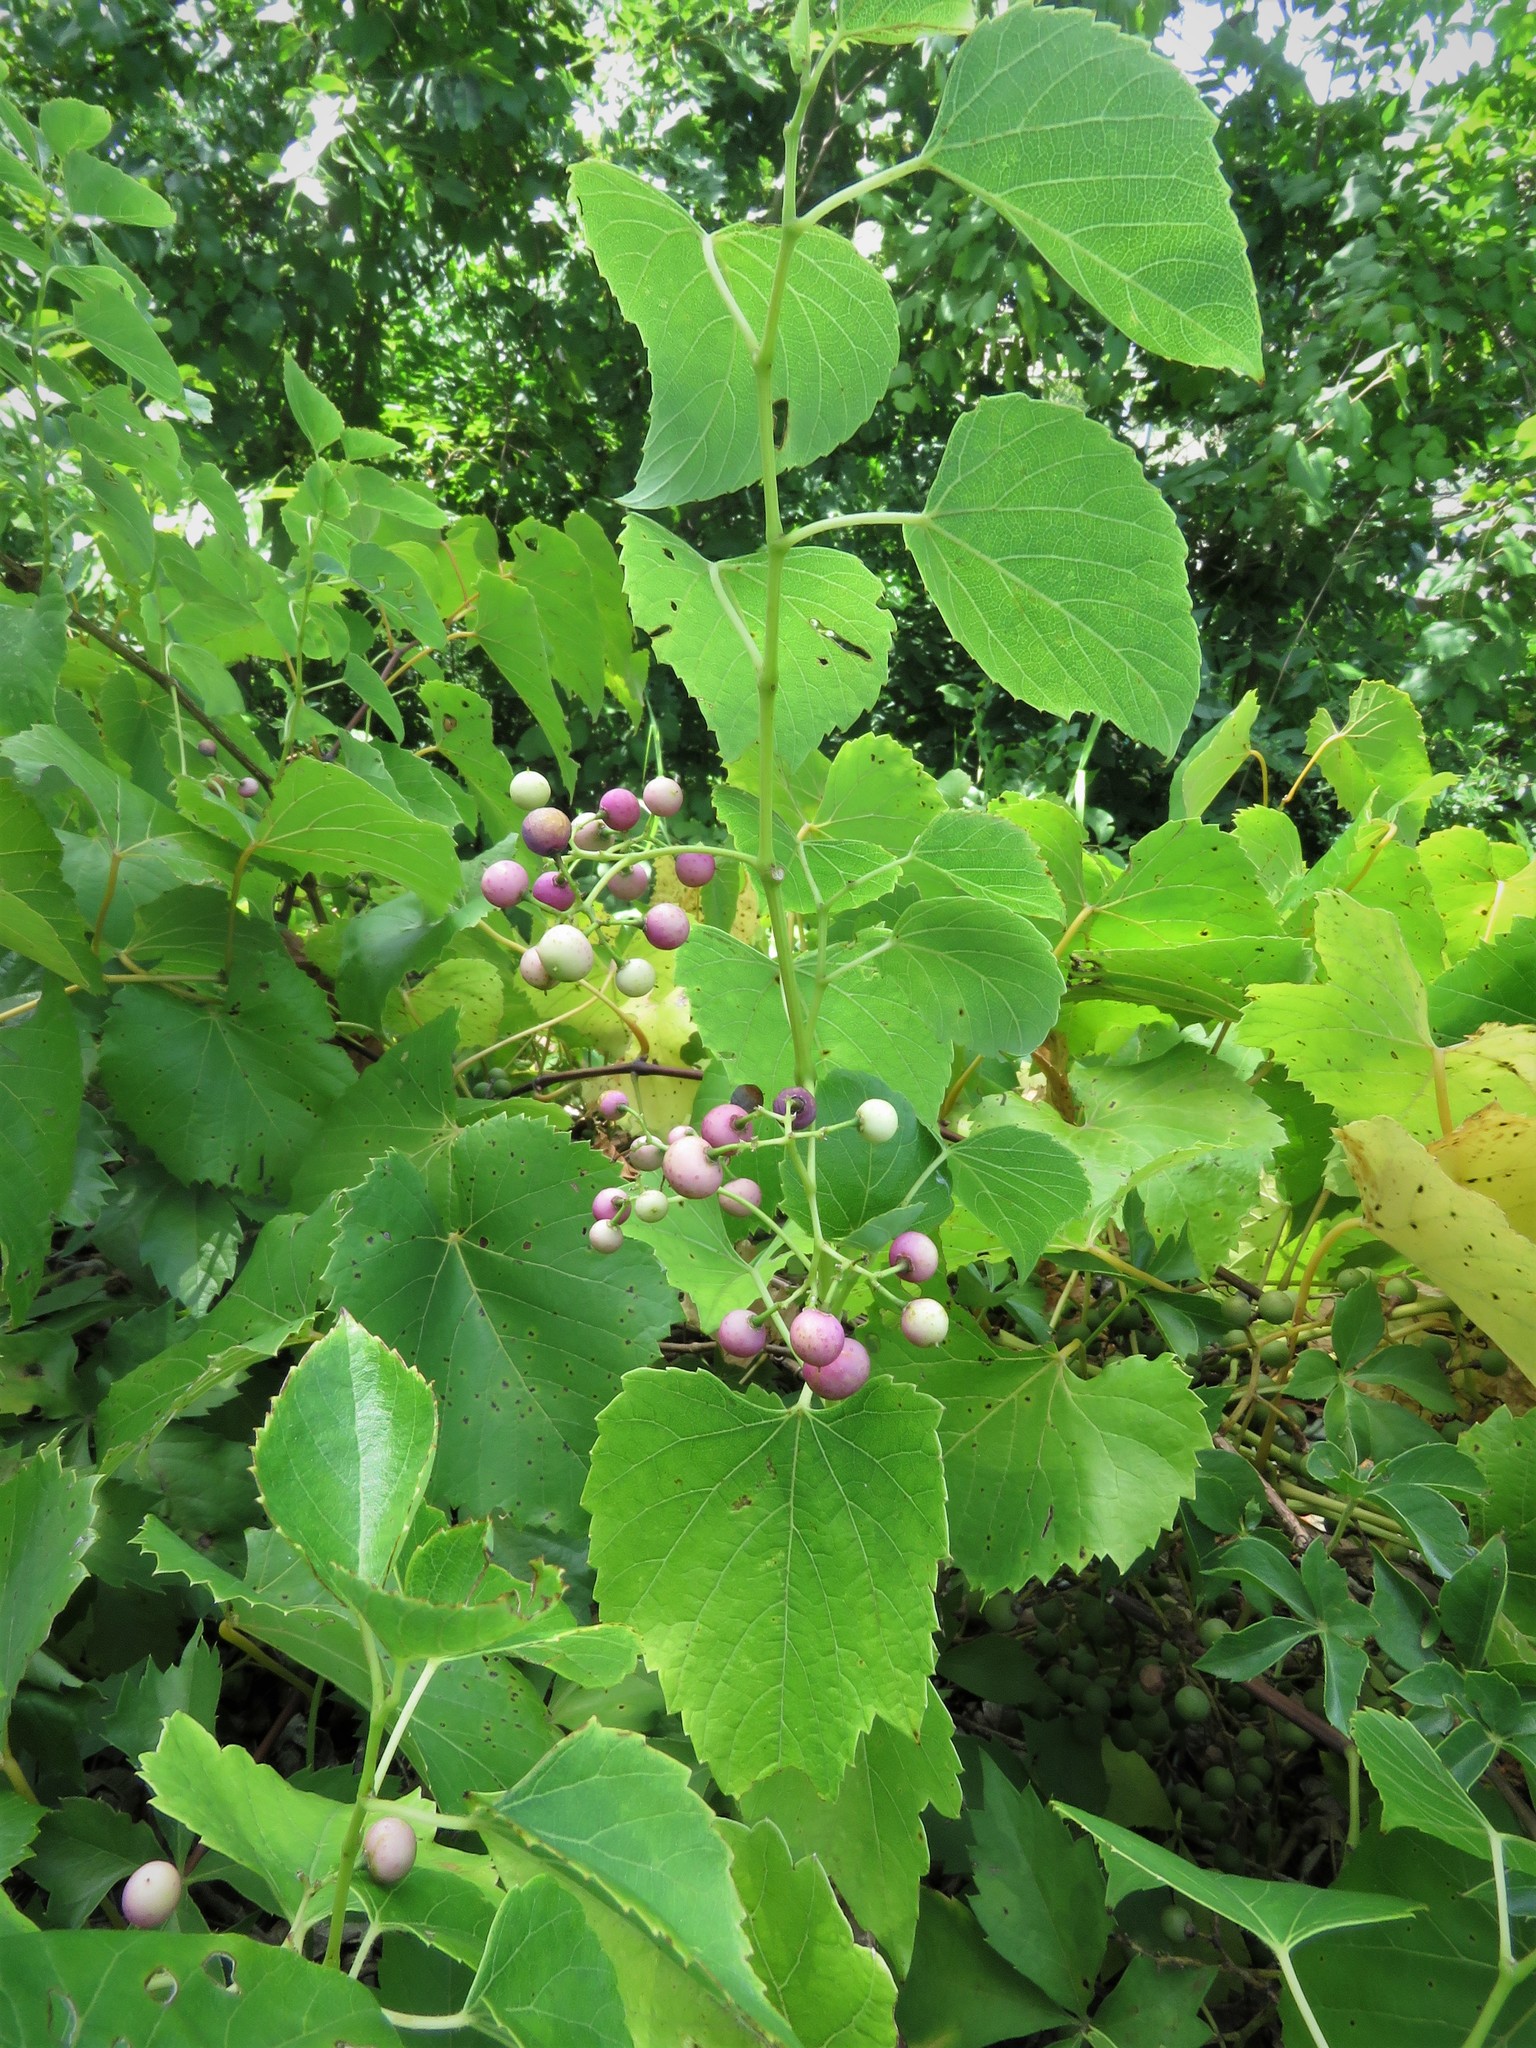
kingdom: Plantae
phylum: Tracheophyta
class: Magnoliopsida
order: Vitales
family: Vitaceae
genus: Ampelopsis
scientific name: Ampelopsis cordata
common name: Heart-leaf ampelopsis
